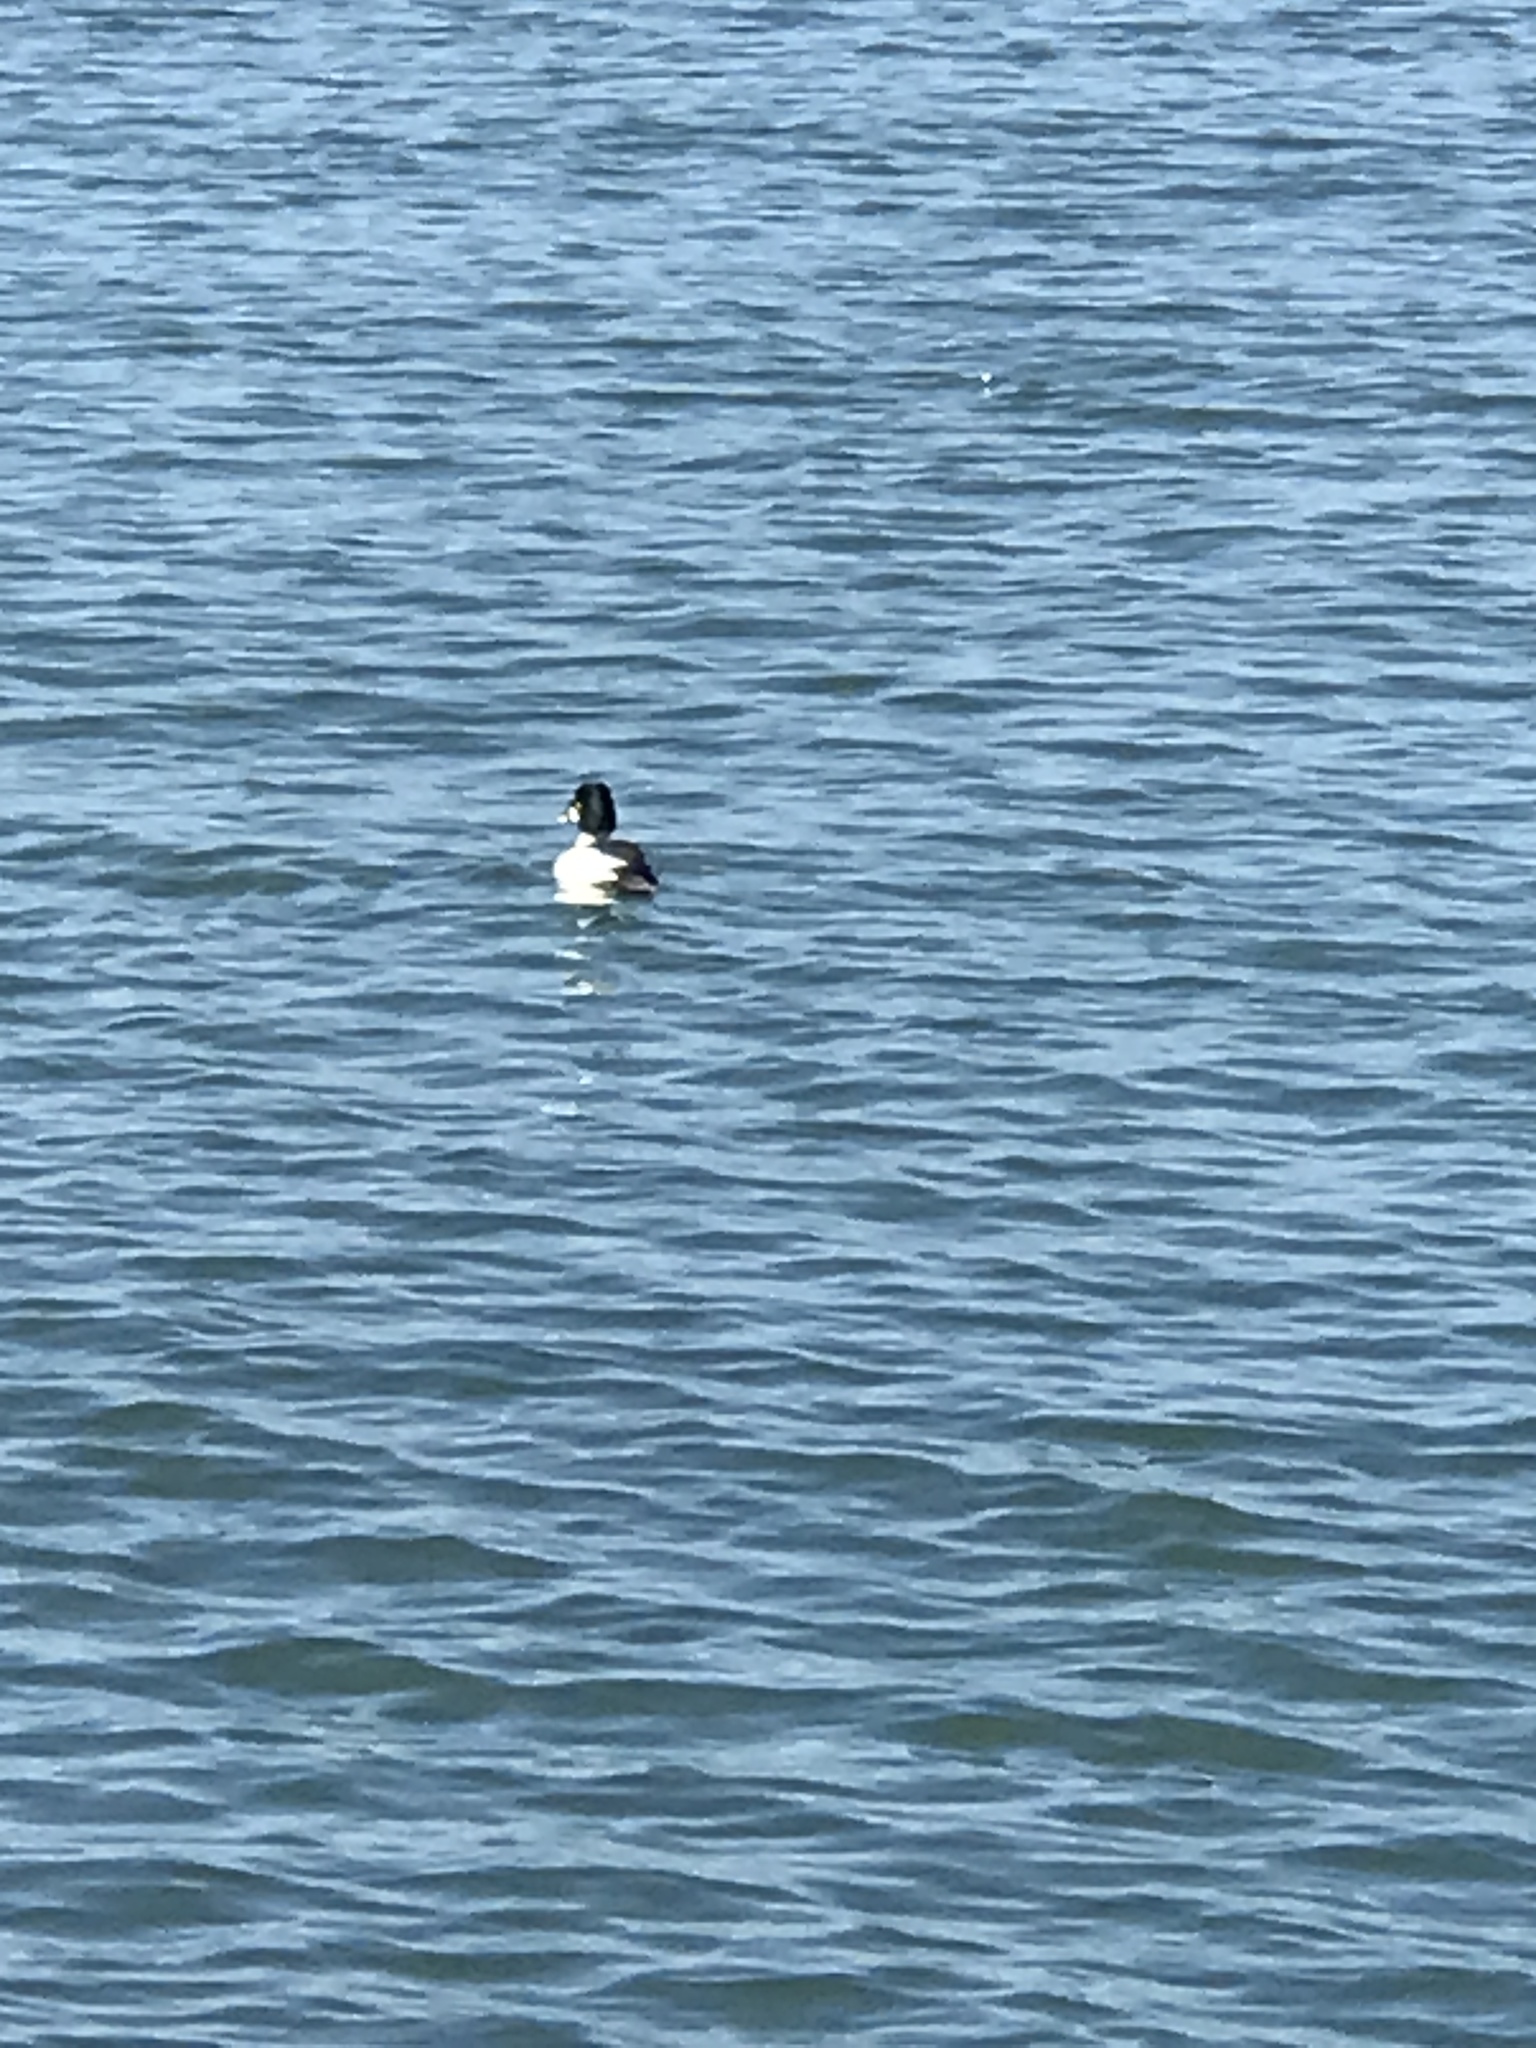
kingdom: Animalia
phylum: Chordata
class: Aves
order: Anseriformes
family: Anatidae
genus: Bucephala
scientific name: Bucephala clangula
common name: Common goldeneye
